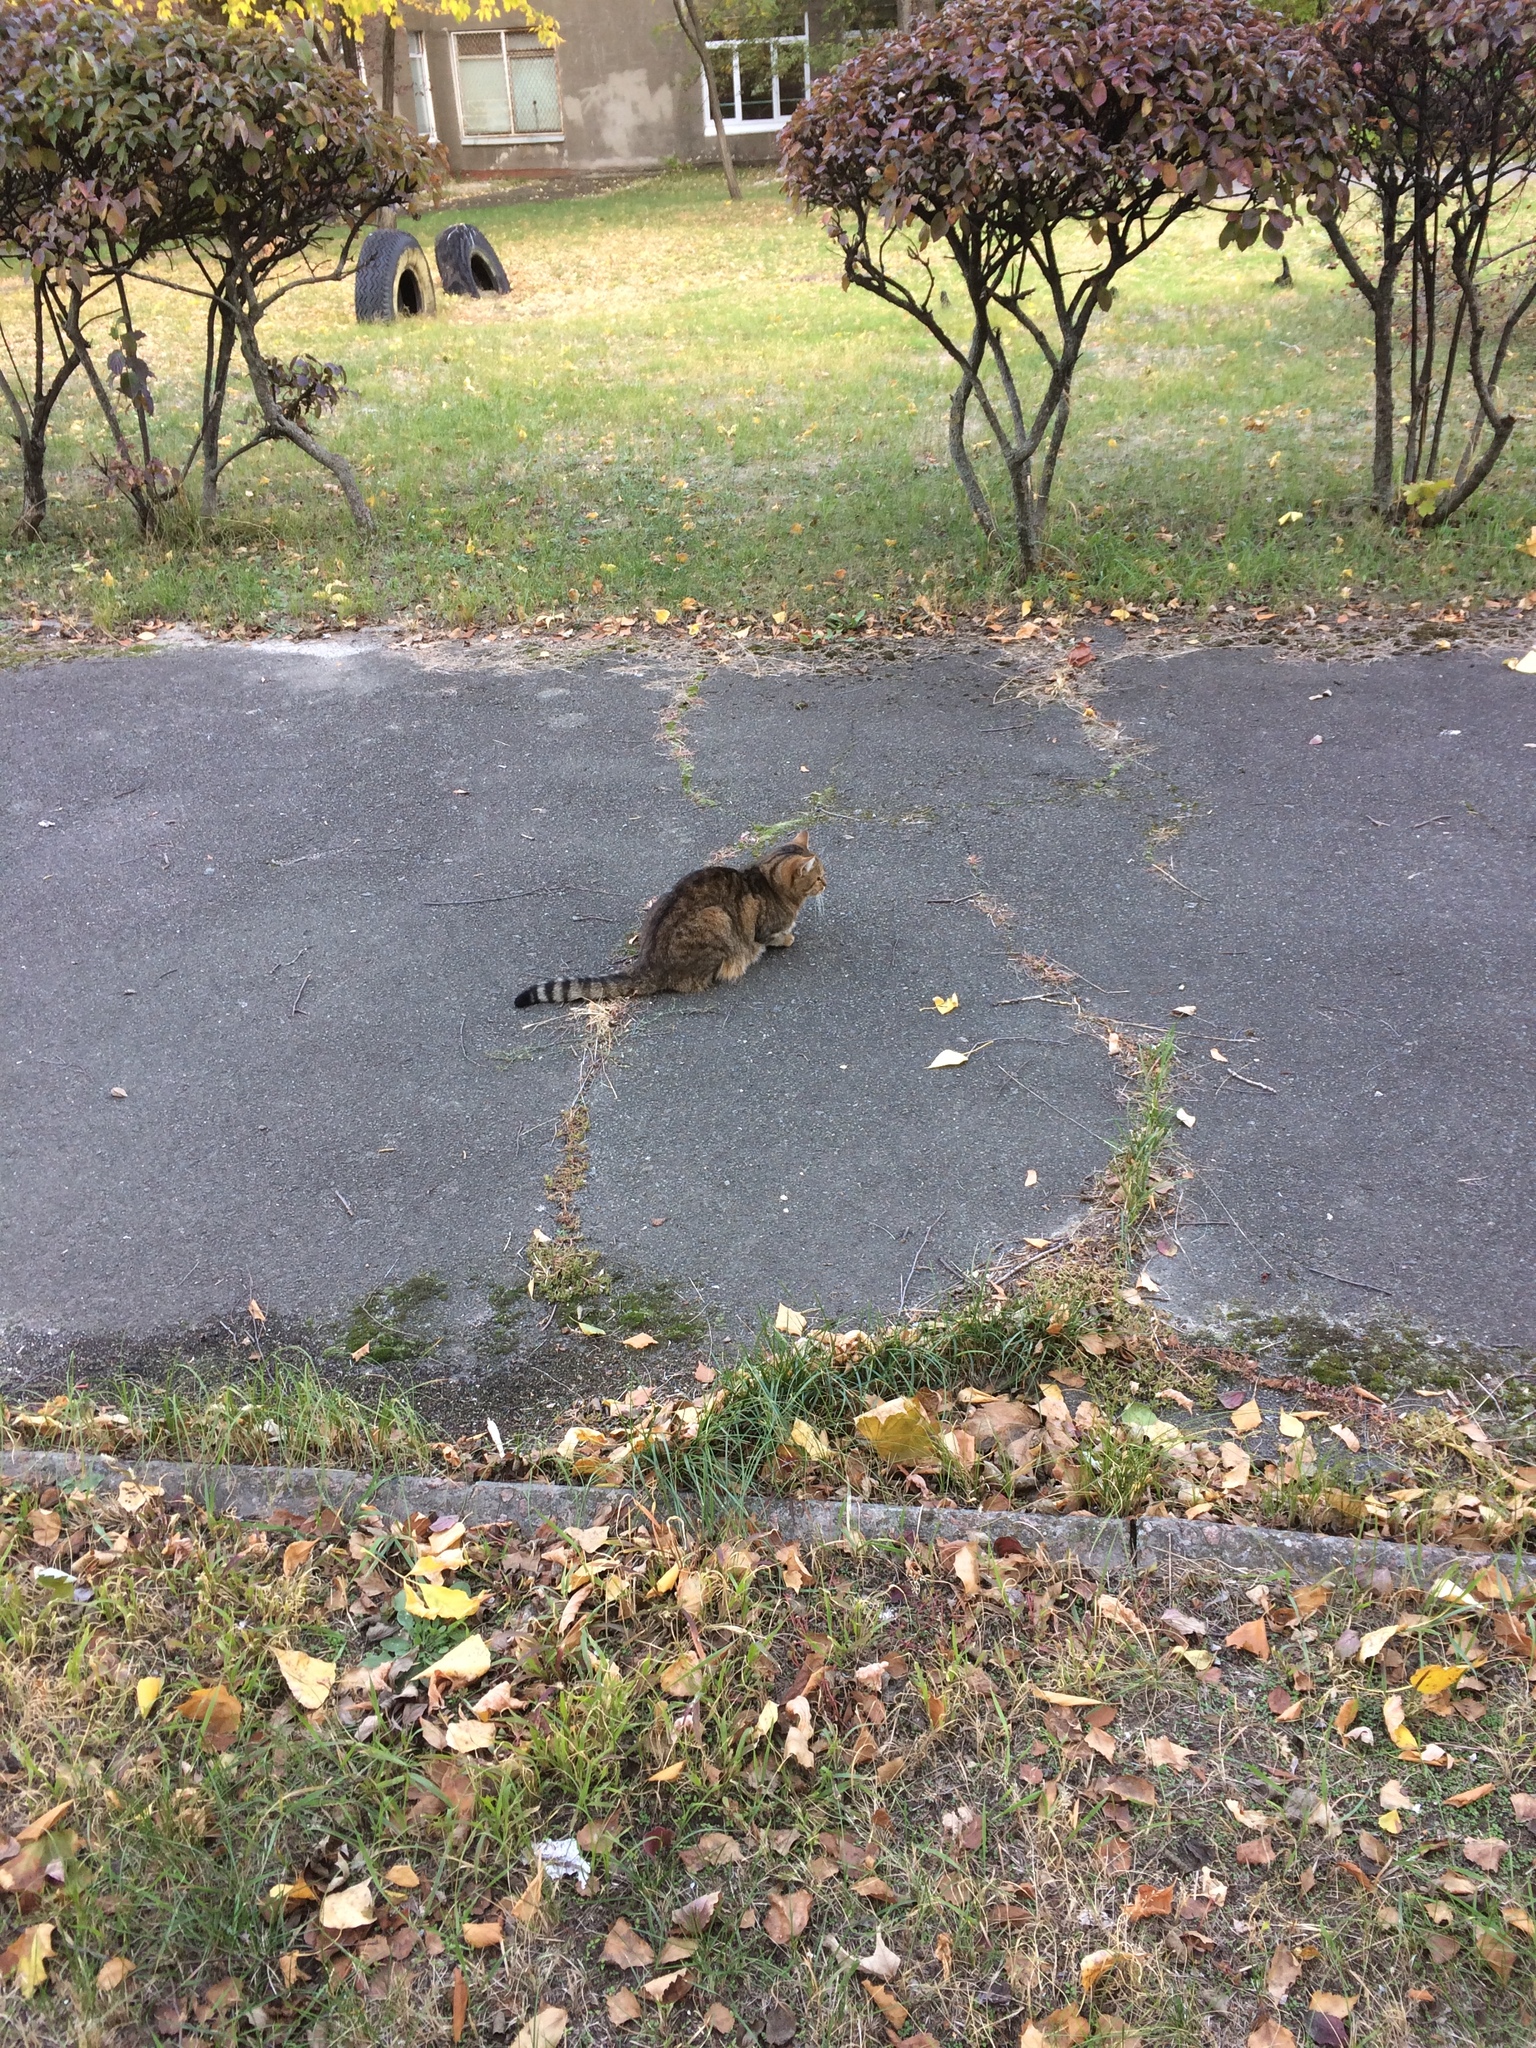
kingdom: Animalia
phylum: Chordata
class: Mammalia
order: Carnivora
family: Felidae
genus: Felis
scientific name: Felis catus
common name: Domestic cat
